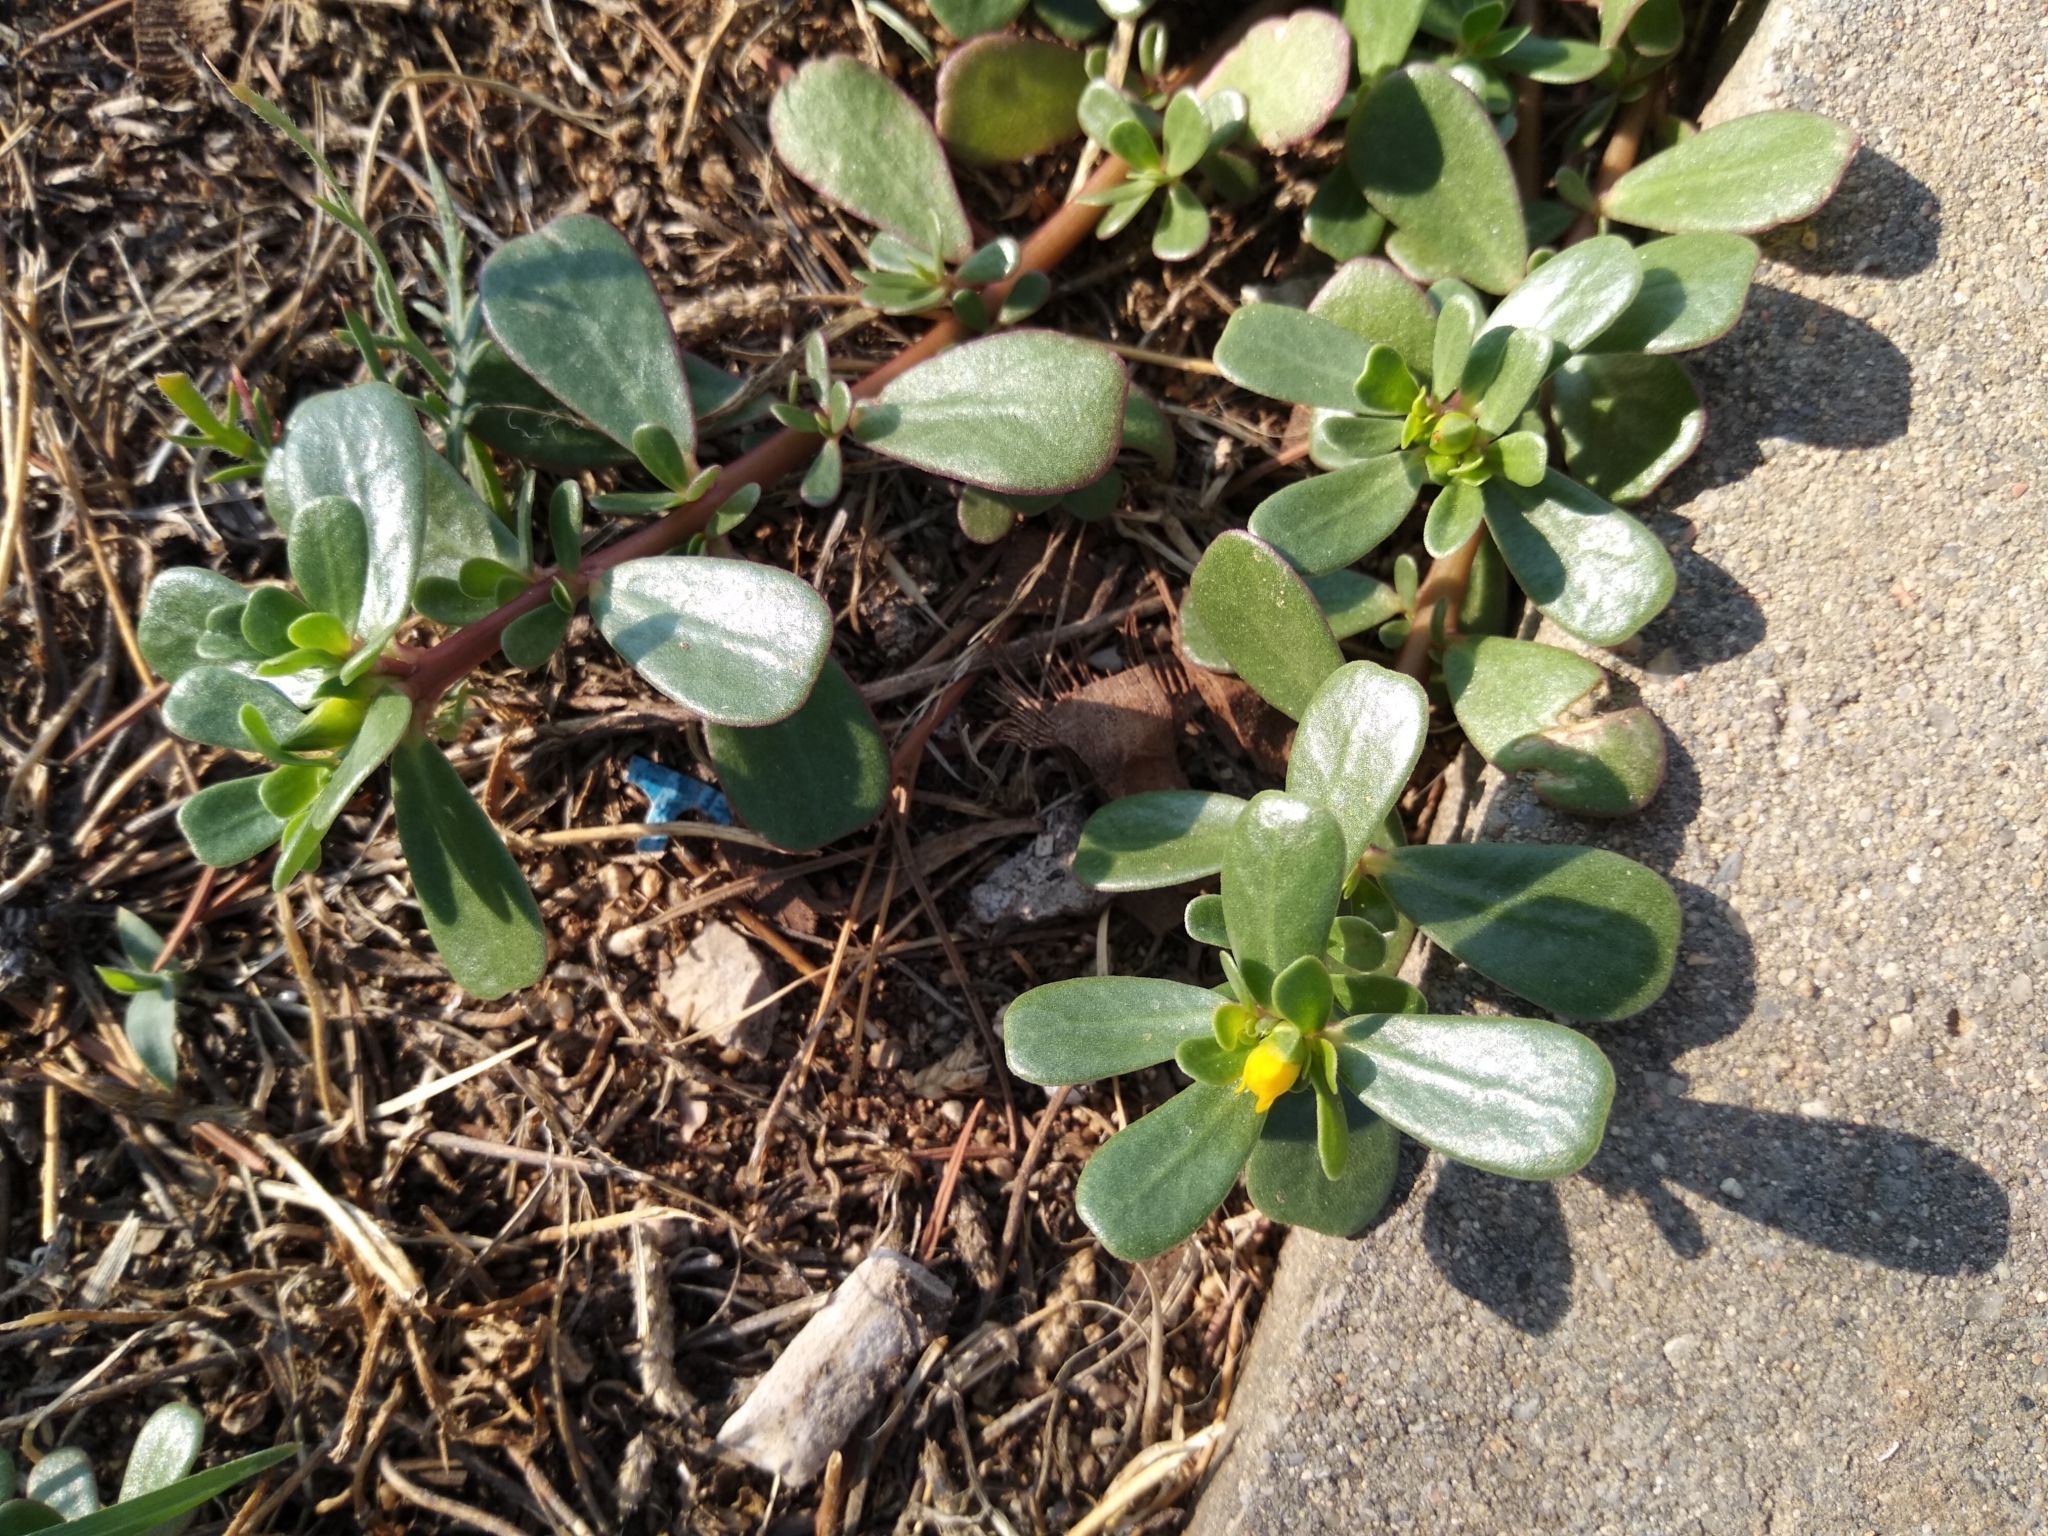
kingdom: Plantae
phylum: Tracheophyta
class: Magnoliopsida
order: Caryophyllales
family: Portulacaceae
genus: Portulaca
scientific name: Portulaca oleracea
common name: Common purslane
